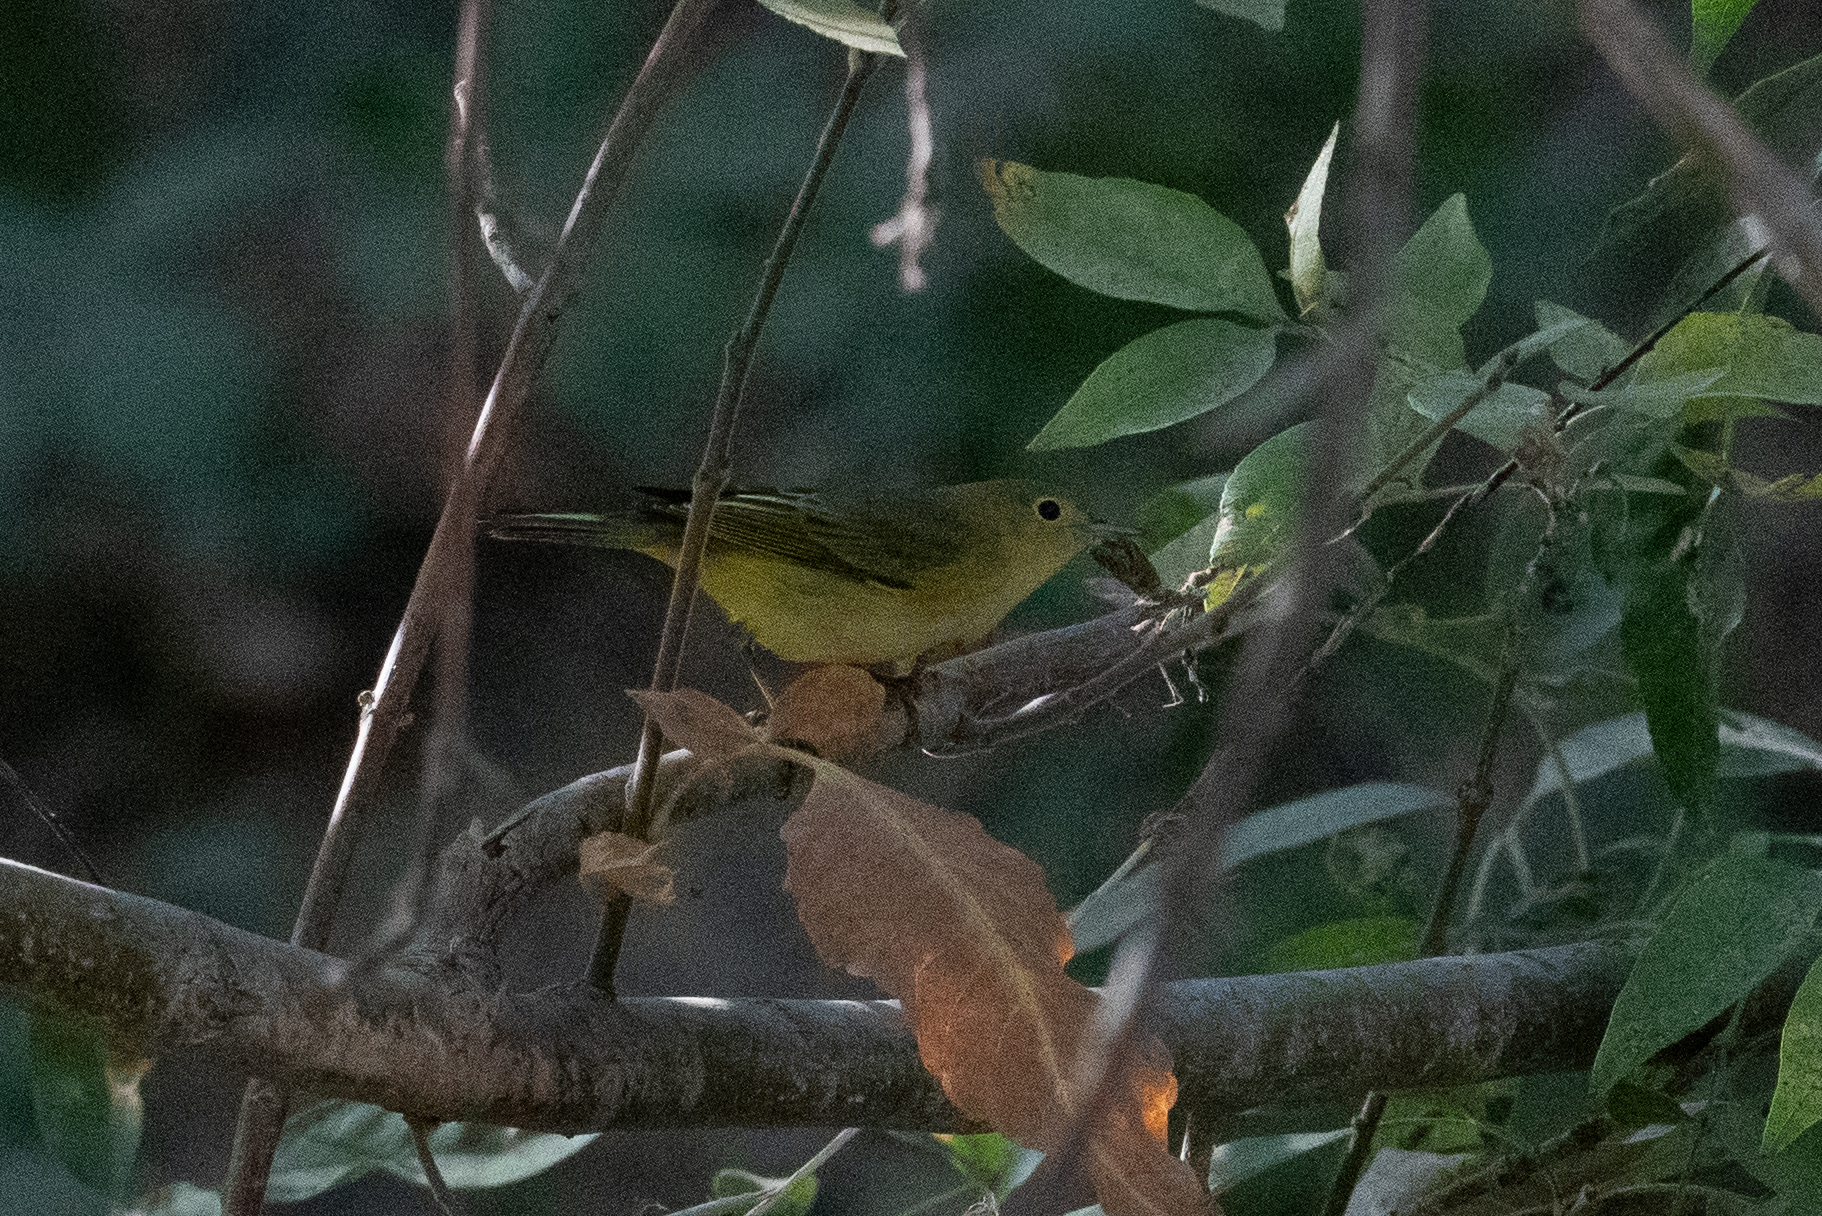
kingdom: Animalia
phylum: Chordata
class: Aves
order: Passeriformes
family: Parulidae
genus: Setophaga
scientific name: Setophaga petechia
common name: Yellow warbler
